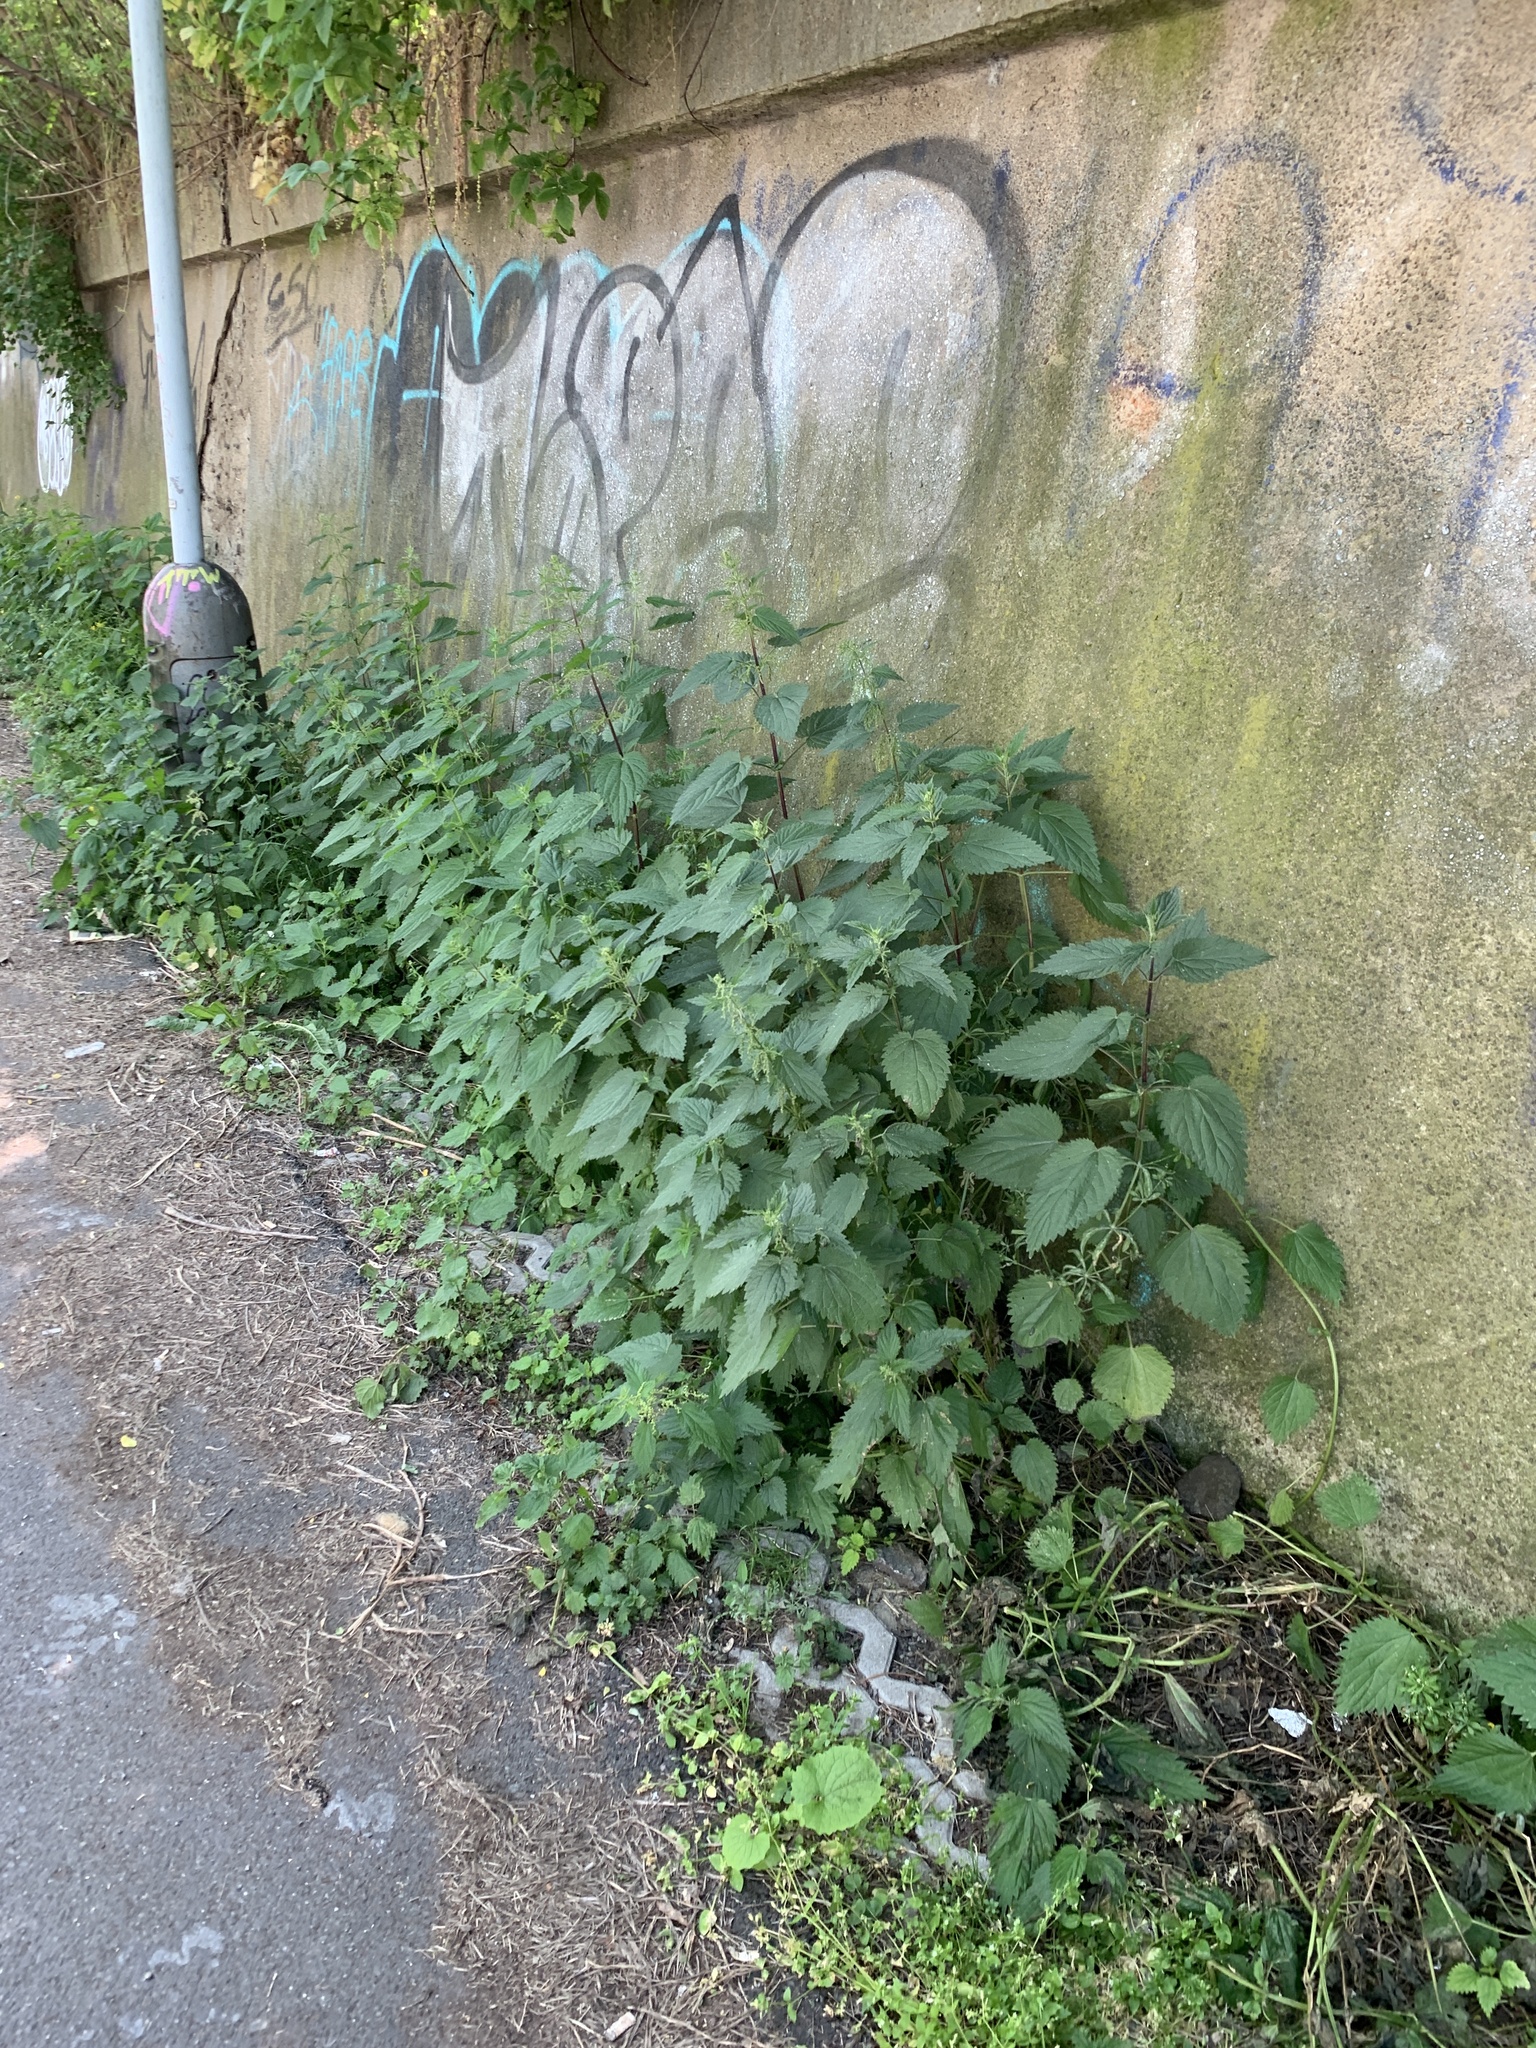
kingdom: Plantae
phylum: Tracheophyta
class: Magnoliopsida
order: Rosales
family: Urticaceae
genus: Urtica
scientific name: Urtica dioica
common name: Common nettle
